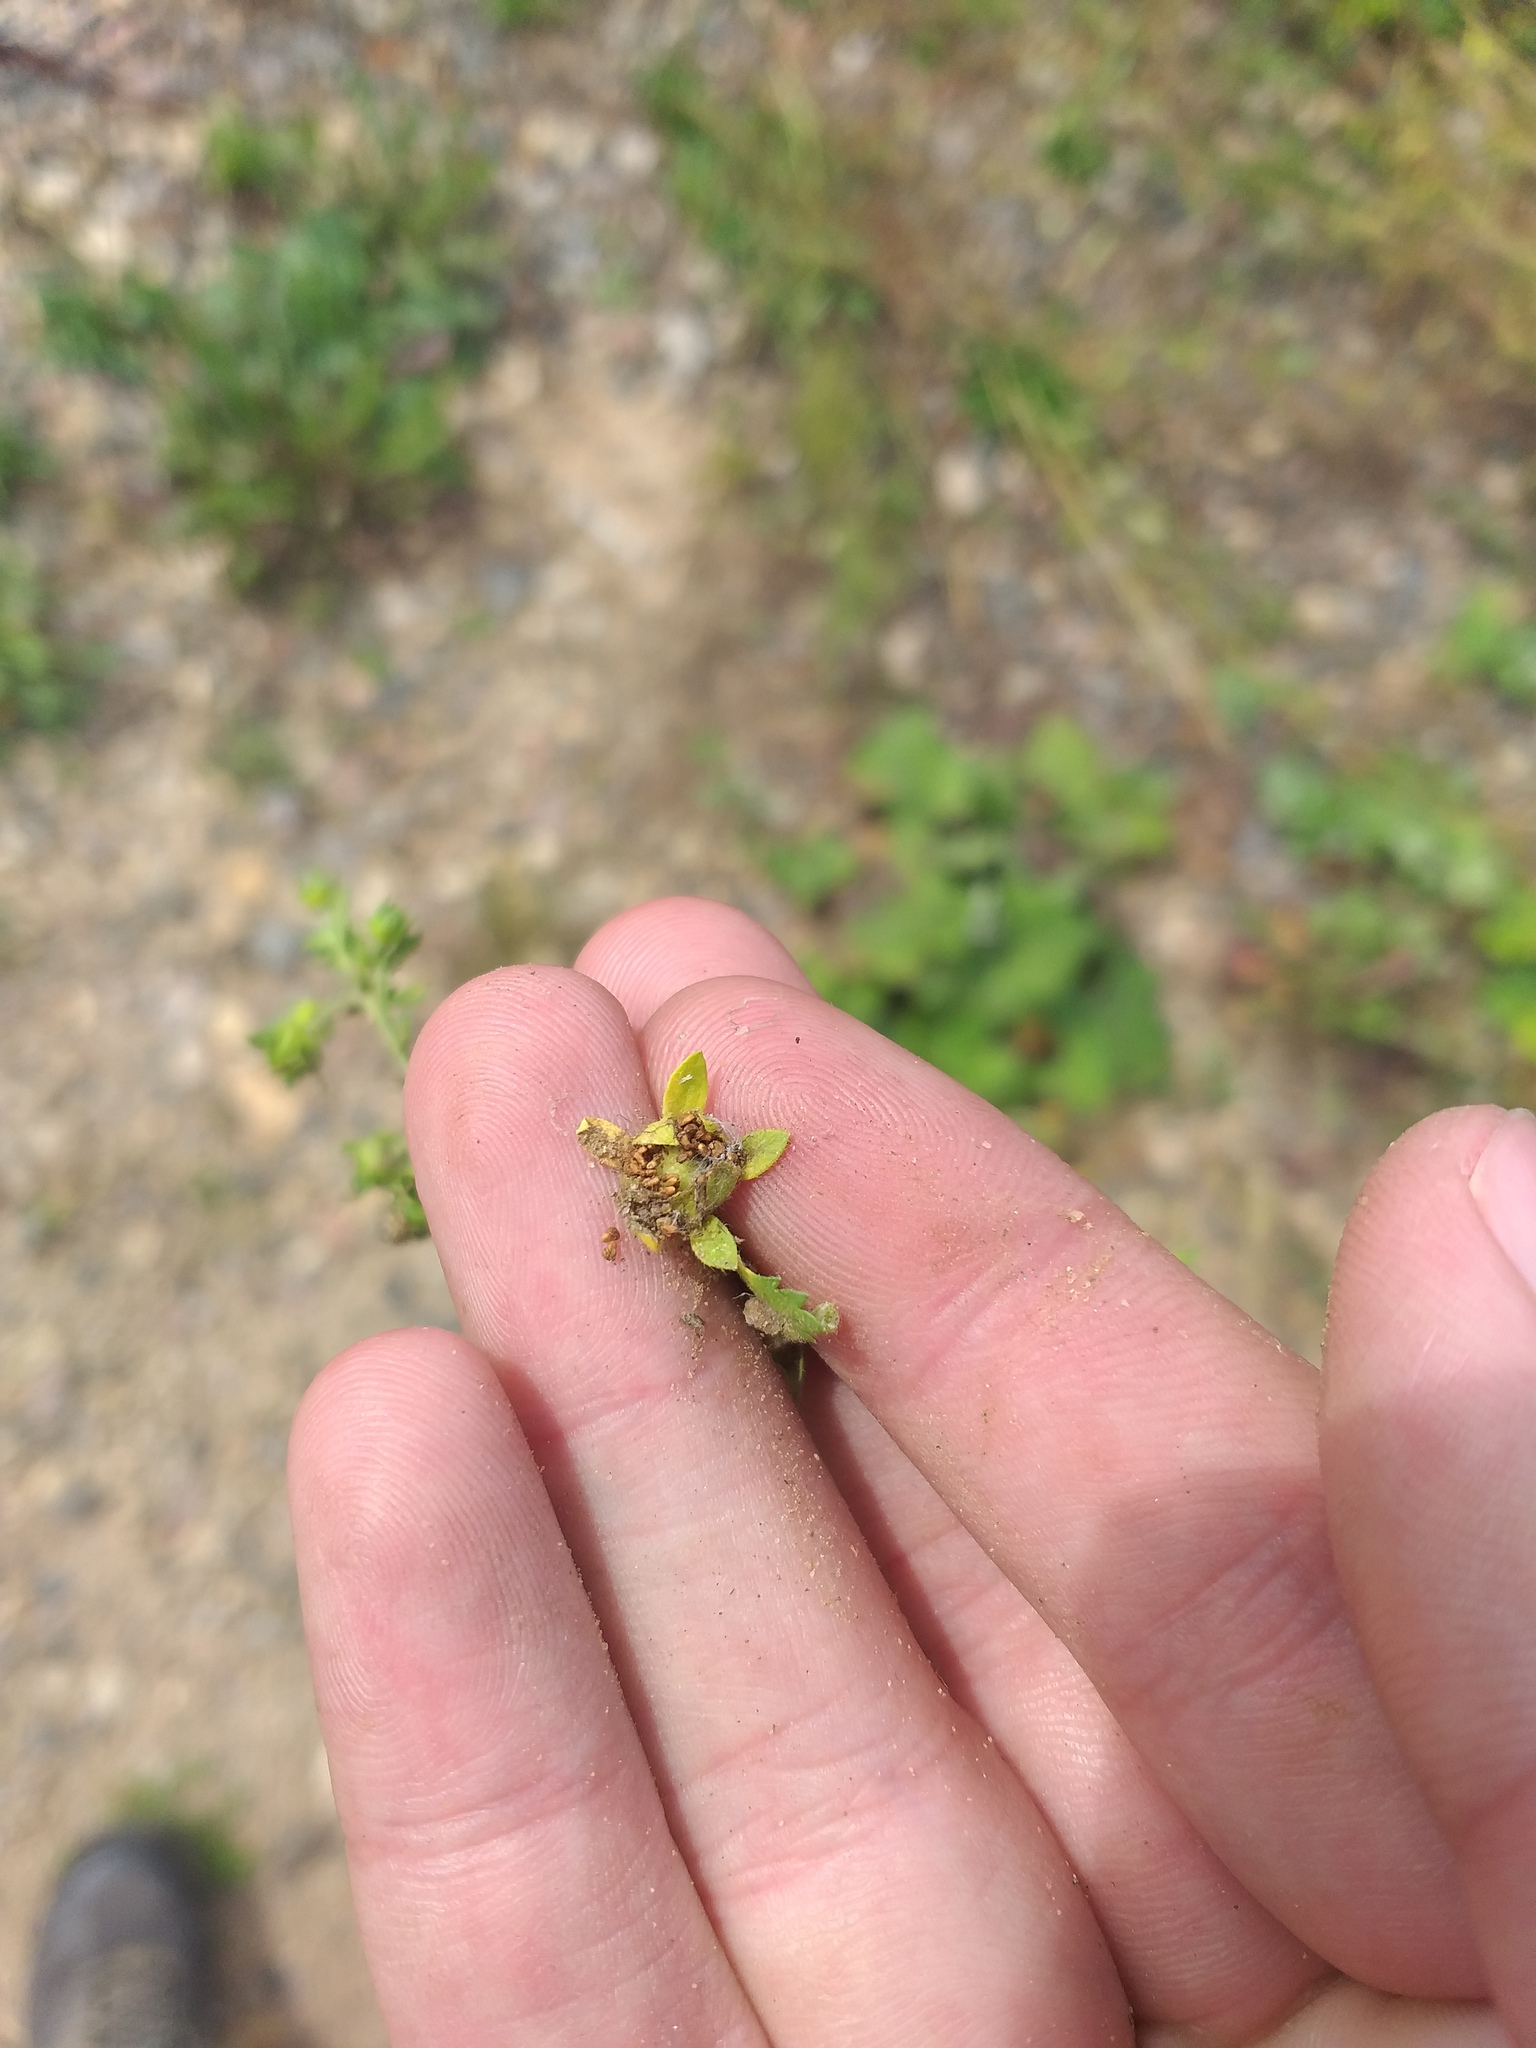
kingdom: Plantae
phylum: Tracheophyta
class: Magnoliopsida
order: Rosales
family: Rosaceae
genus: Potentilla
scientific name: Potentilla supina
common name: Prostrate cinquefoil
